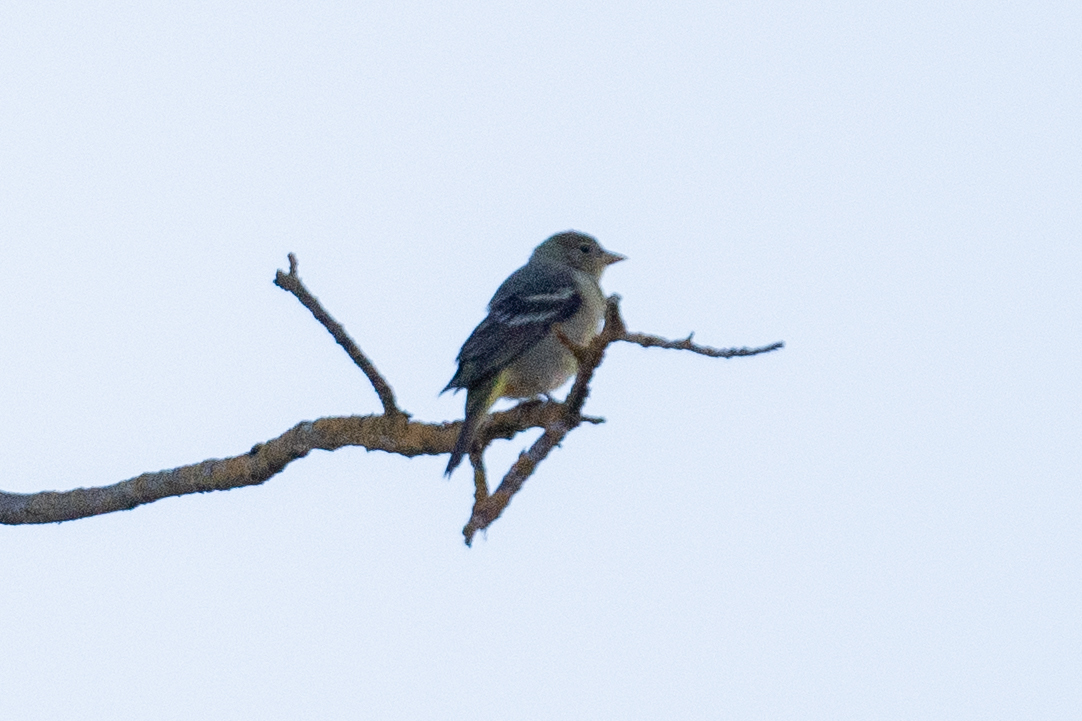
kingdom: Animalia
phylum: Chordata
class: Aves
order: Passeriformes
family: Cardinalidae
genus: Piranga
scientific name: Piranga ludoviciana
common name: Western tanager
